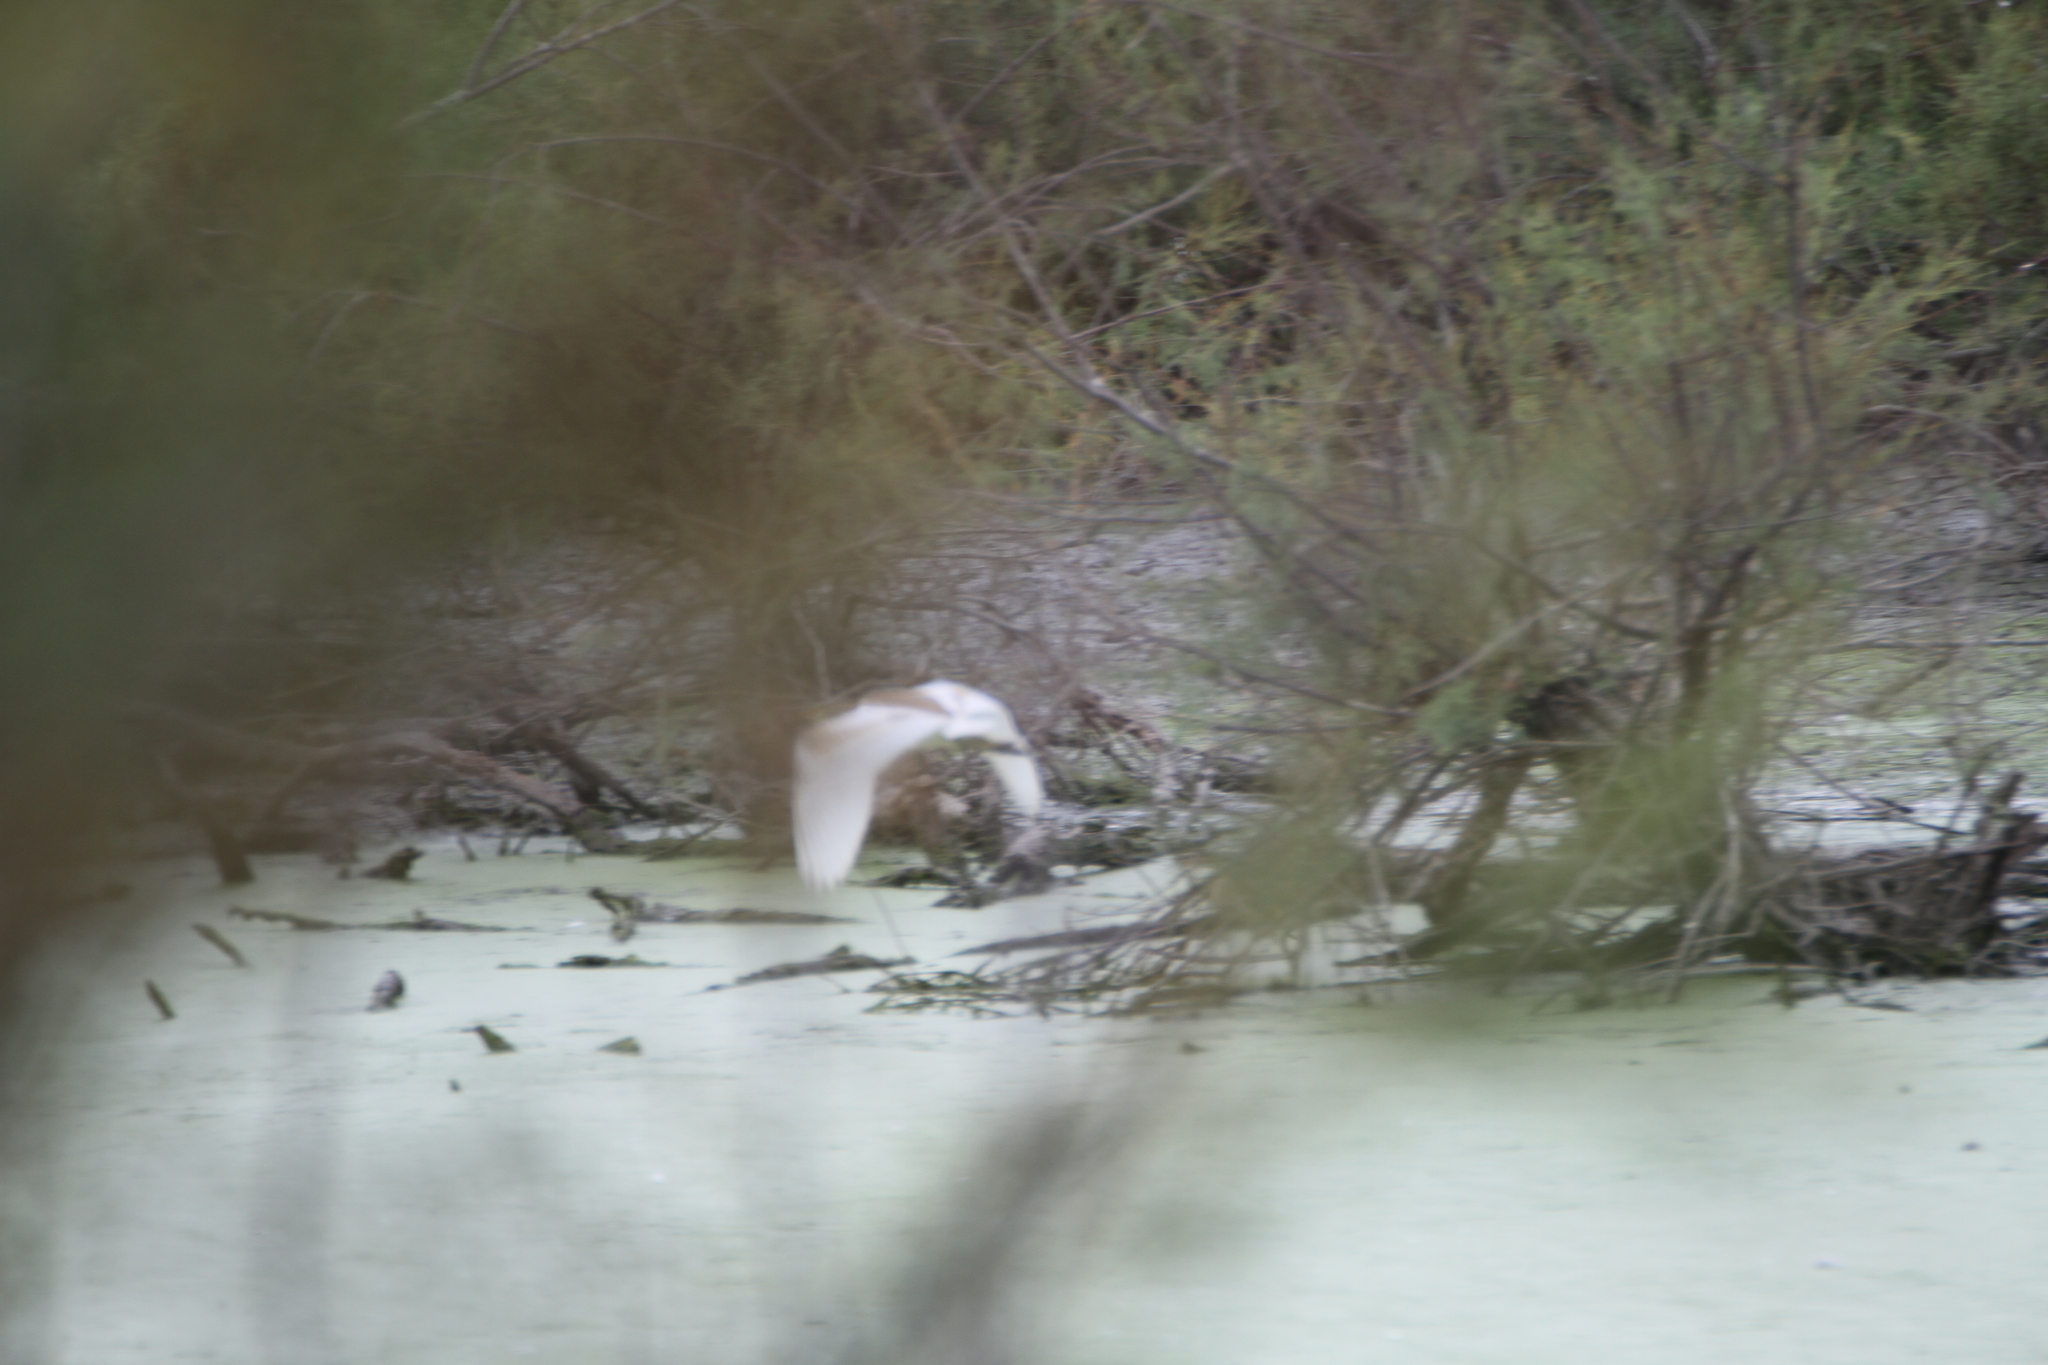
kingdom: Animalia
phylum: Chordata
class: Aves
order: Pelecaniformes
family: Ardeidae
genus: Ardeola
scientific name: Ardeola ralloides
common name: Squacco heron
